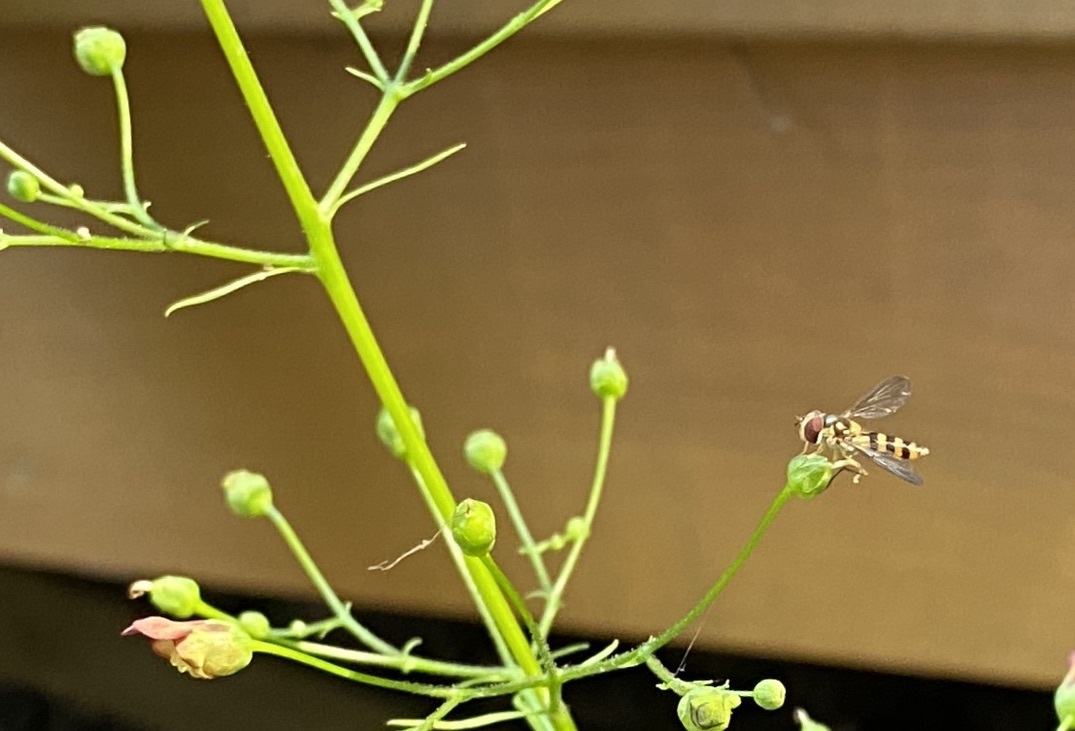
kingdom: Animalia
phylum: Arthropoda
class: Insecta
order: Diptera
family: Syrphidae
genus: Meliscaeva
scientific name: Meliscaeva cinctella
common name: American thintail fly
